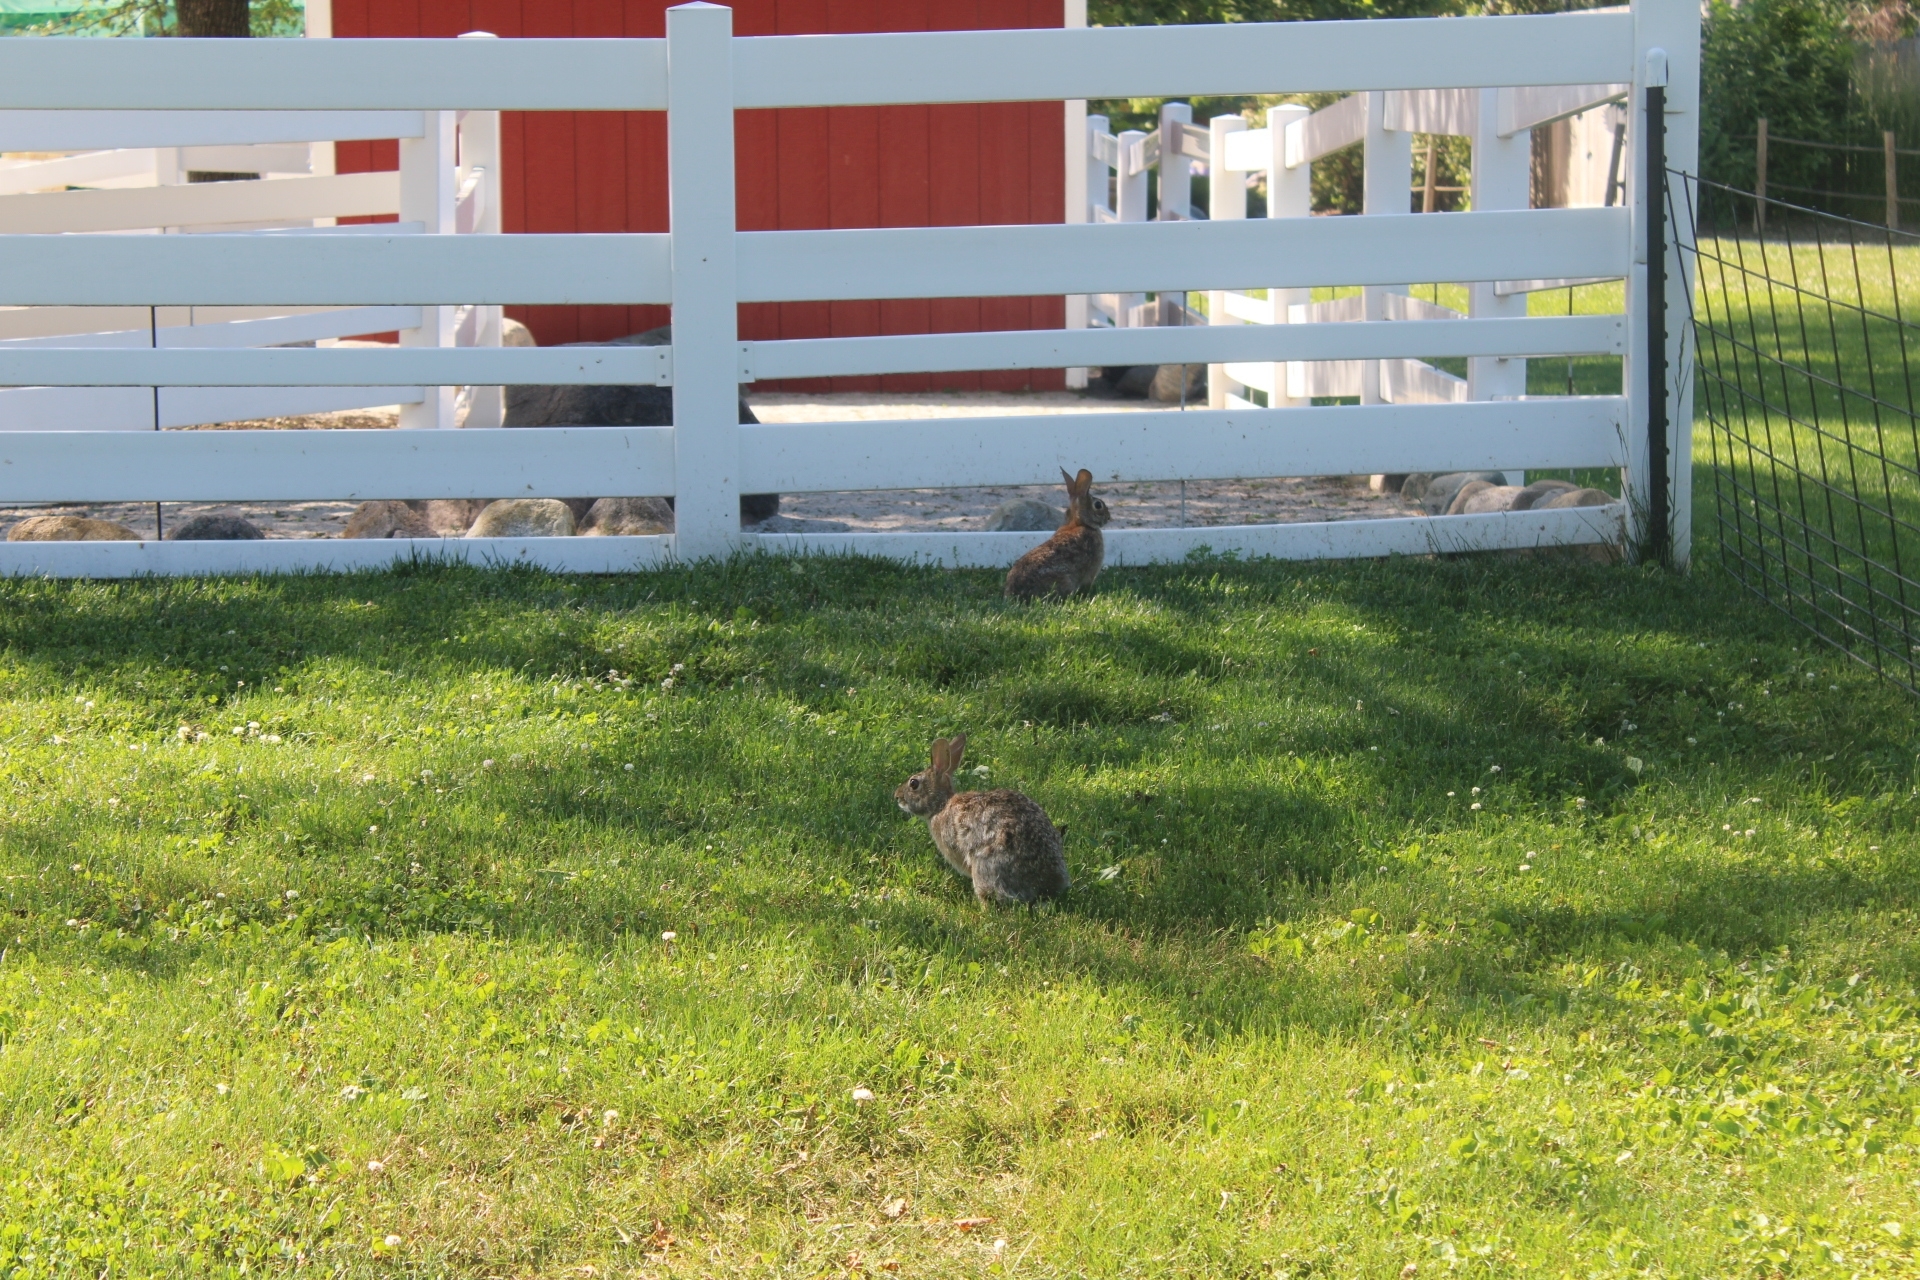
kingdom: Animalia
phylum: Chordata
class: Mammalia
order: Lagomorpha
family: Leporidae
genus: Sylvilagus
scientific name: Sylvilagus floridanus
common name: Eastern cottontail
